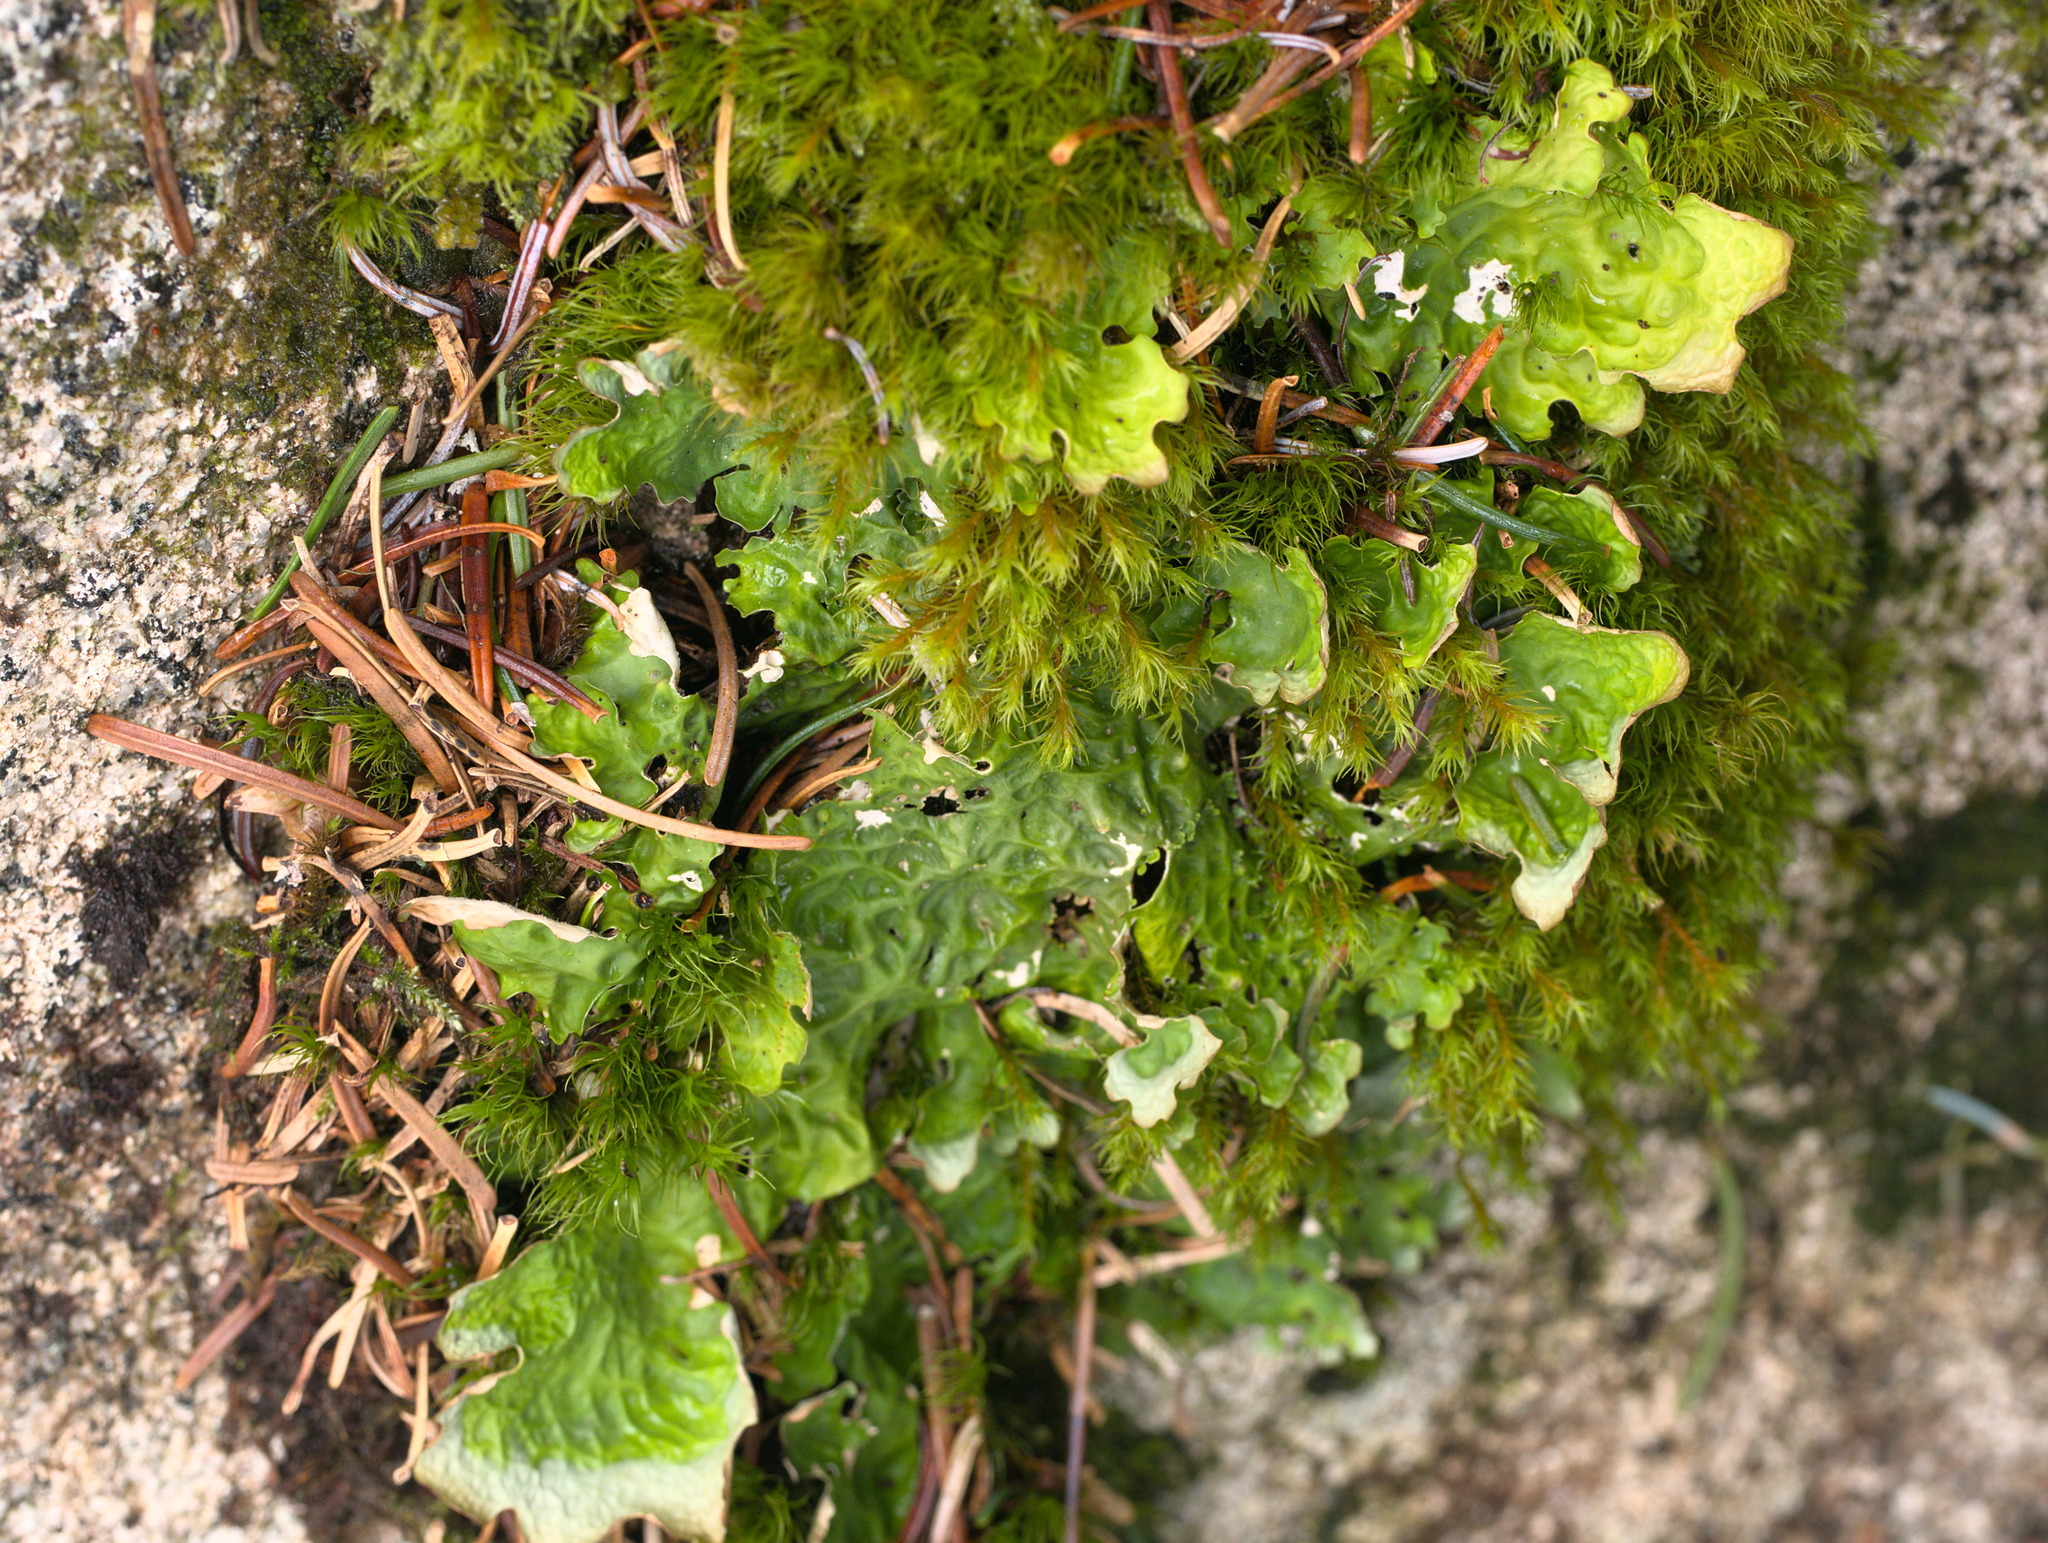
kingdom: Fungi
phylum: Ascomycota
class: Lecanoromycetes
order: Peltigerales
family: Lobariaceae
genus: Lobaria
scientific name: Lobaria linita
